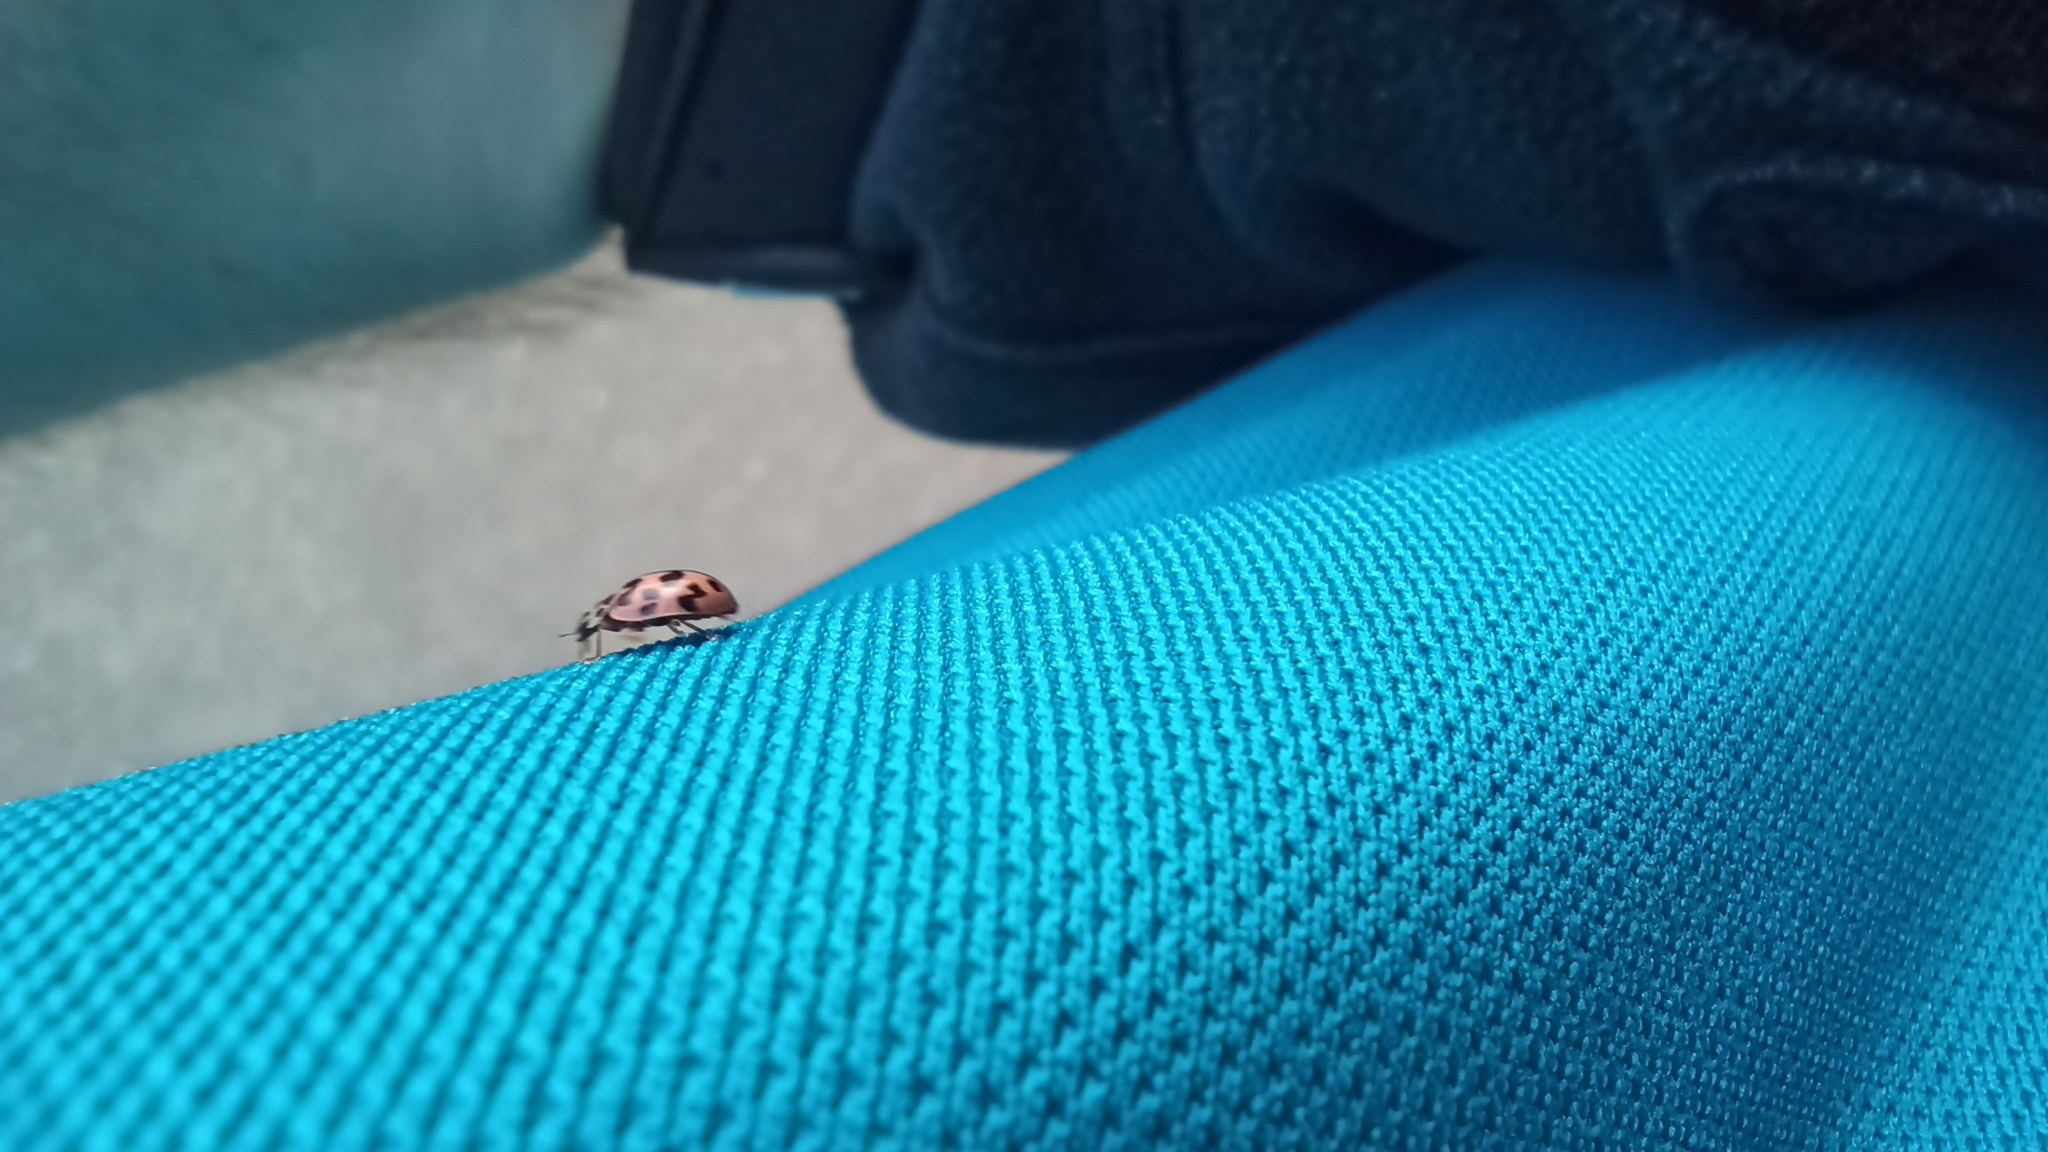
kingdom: Animalia
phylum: Arthropoda
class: Insecta
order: Coleoptera
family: Coccinellidae
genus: Oenopia
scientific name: Oenopia conglobata
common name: Ladybird beetle
